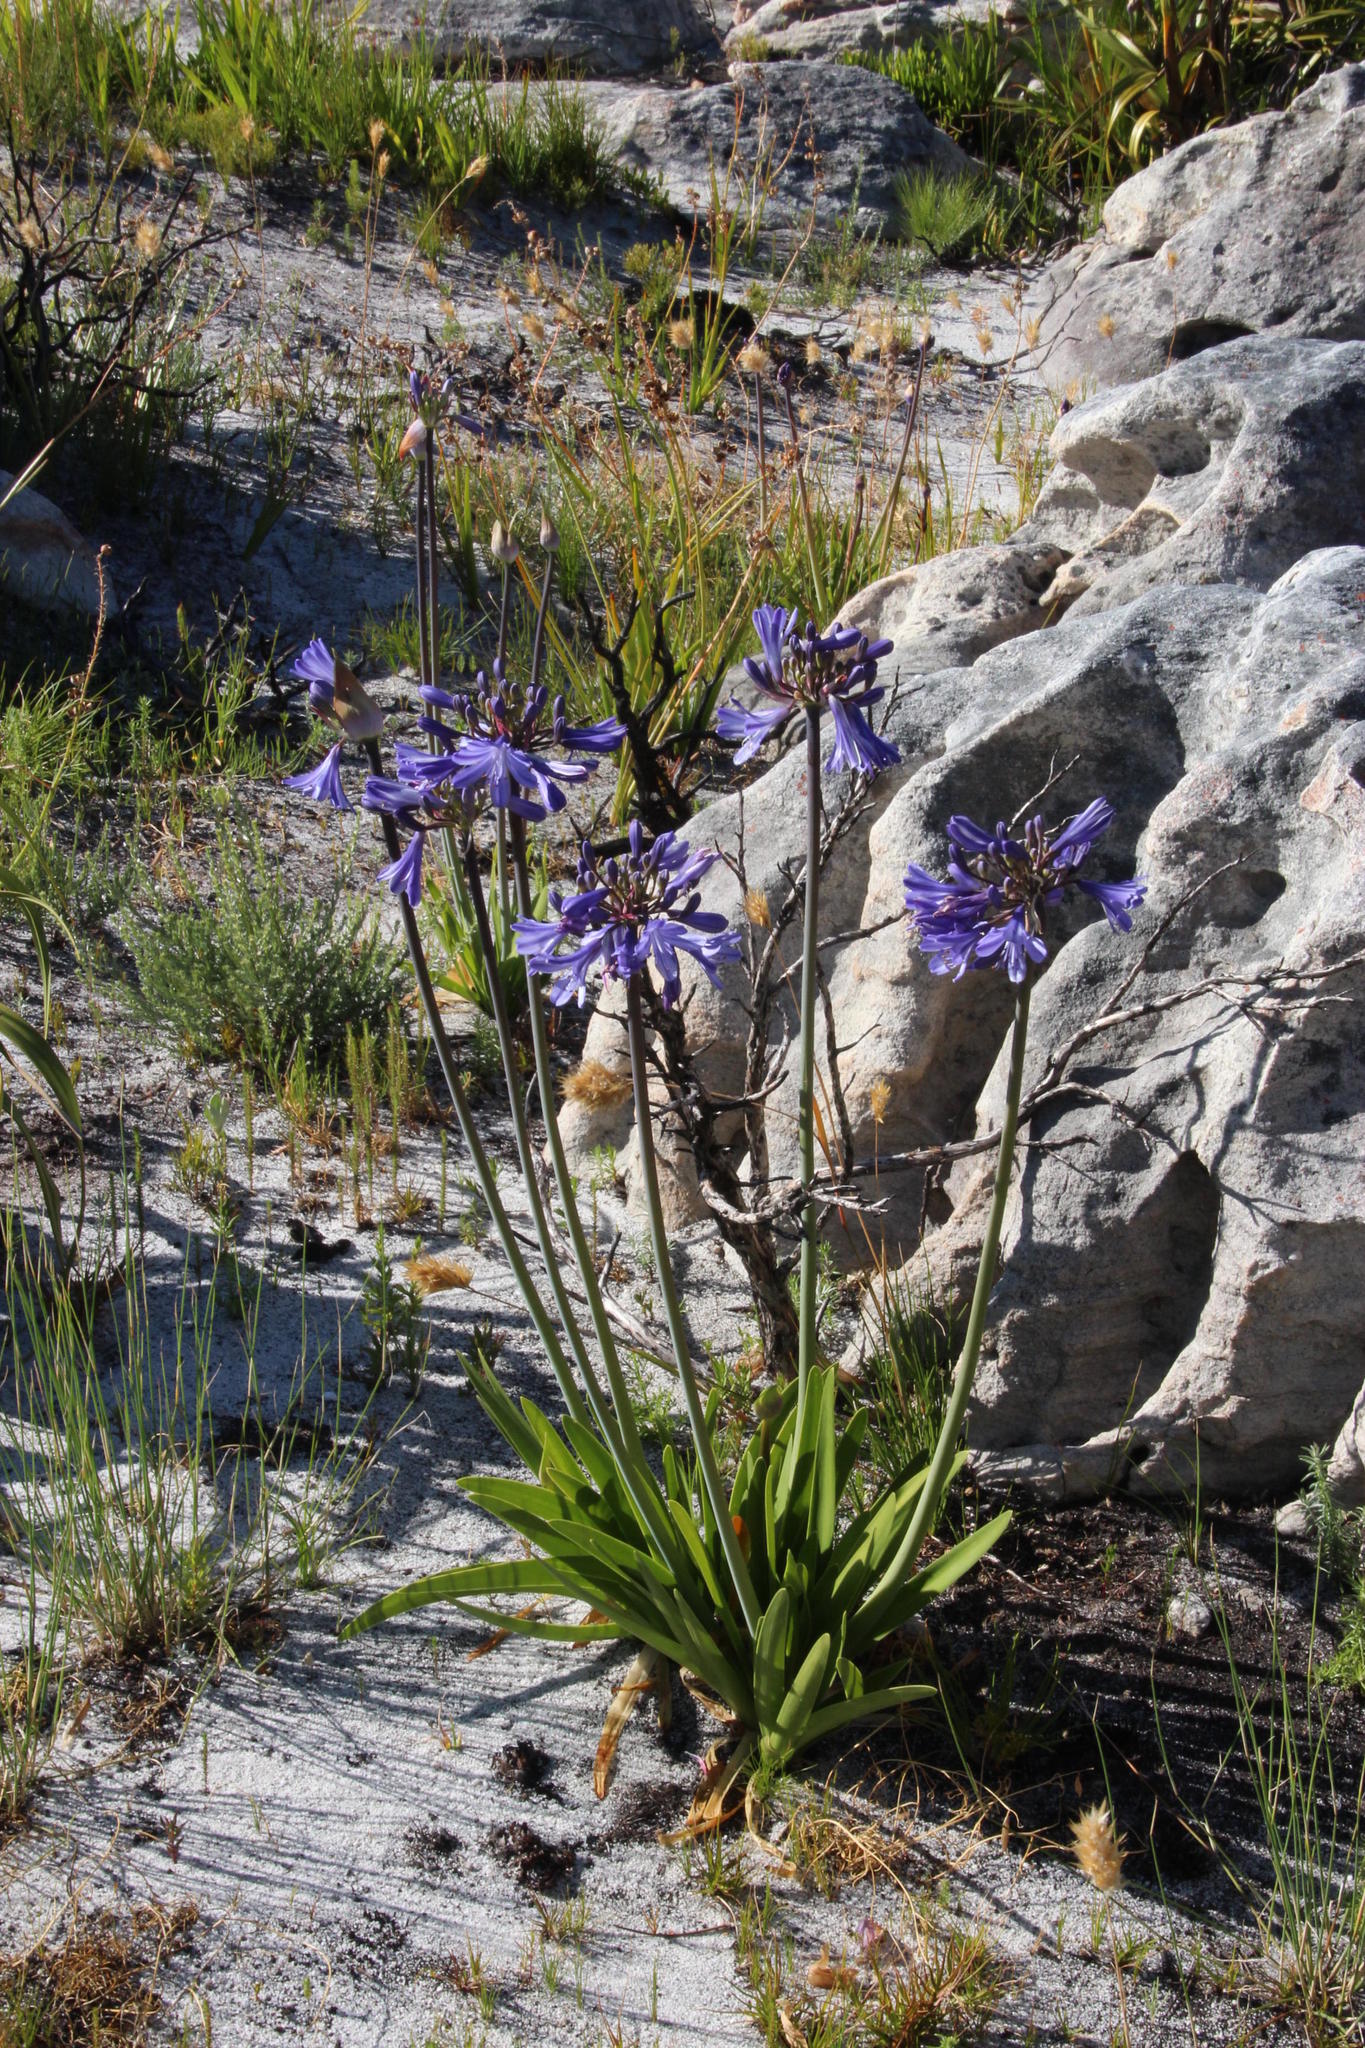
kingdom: Plantae
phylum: Tracheophyta
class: Liliopsida
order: Asparagales
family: Amaryllidaceae
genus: Agapanthus
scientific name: Agapanthus africanus
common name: Lily-of-the-nile
